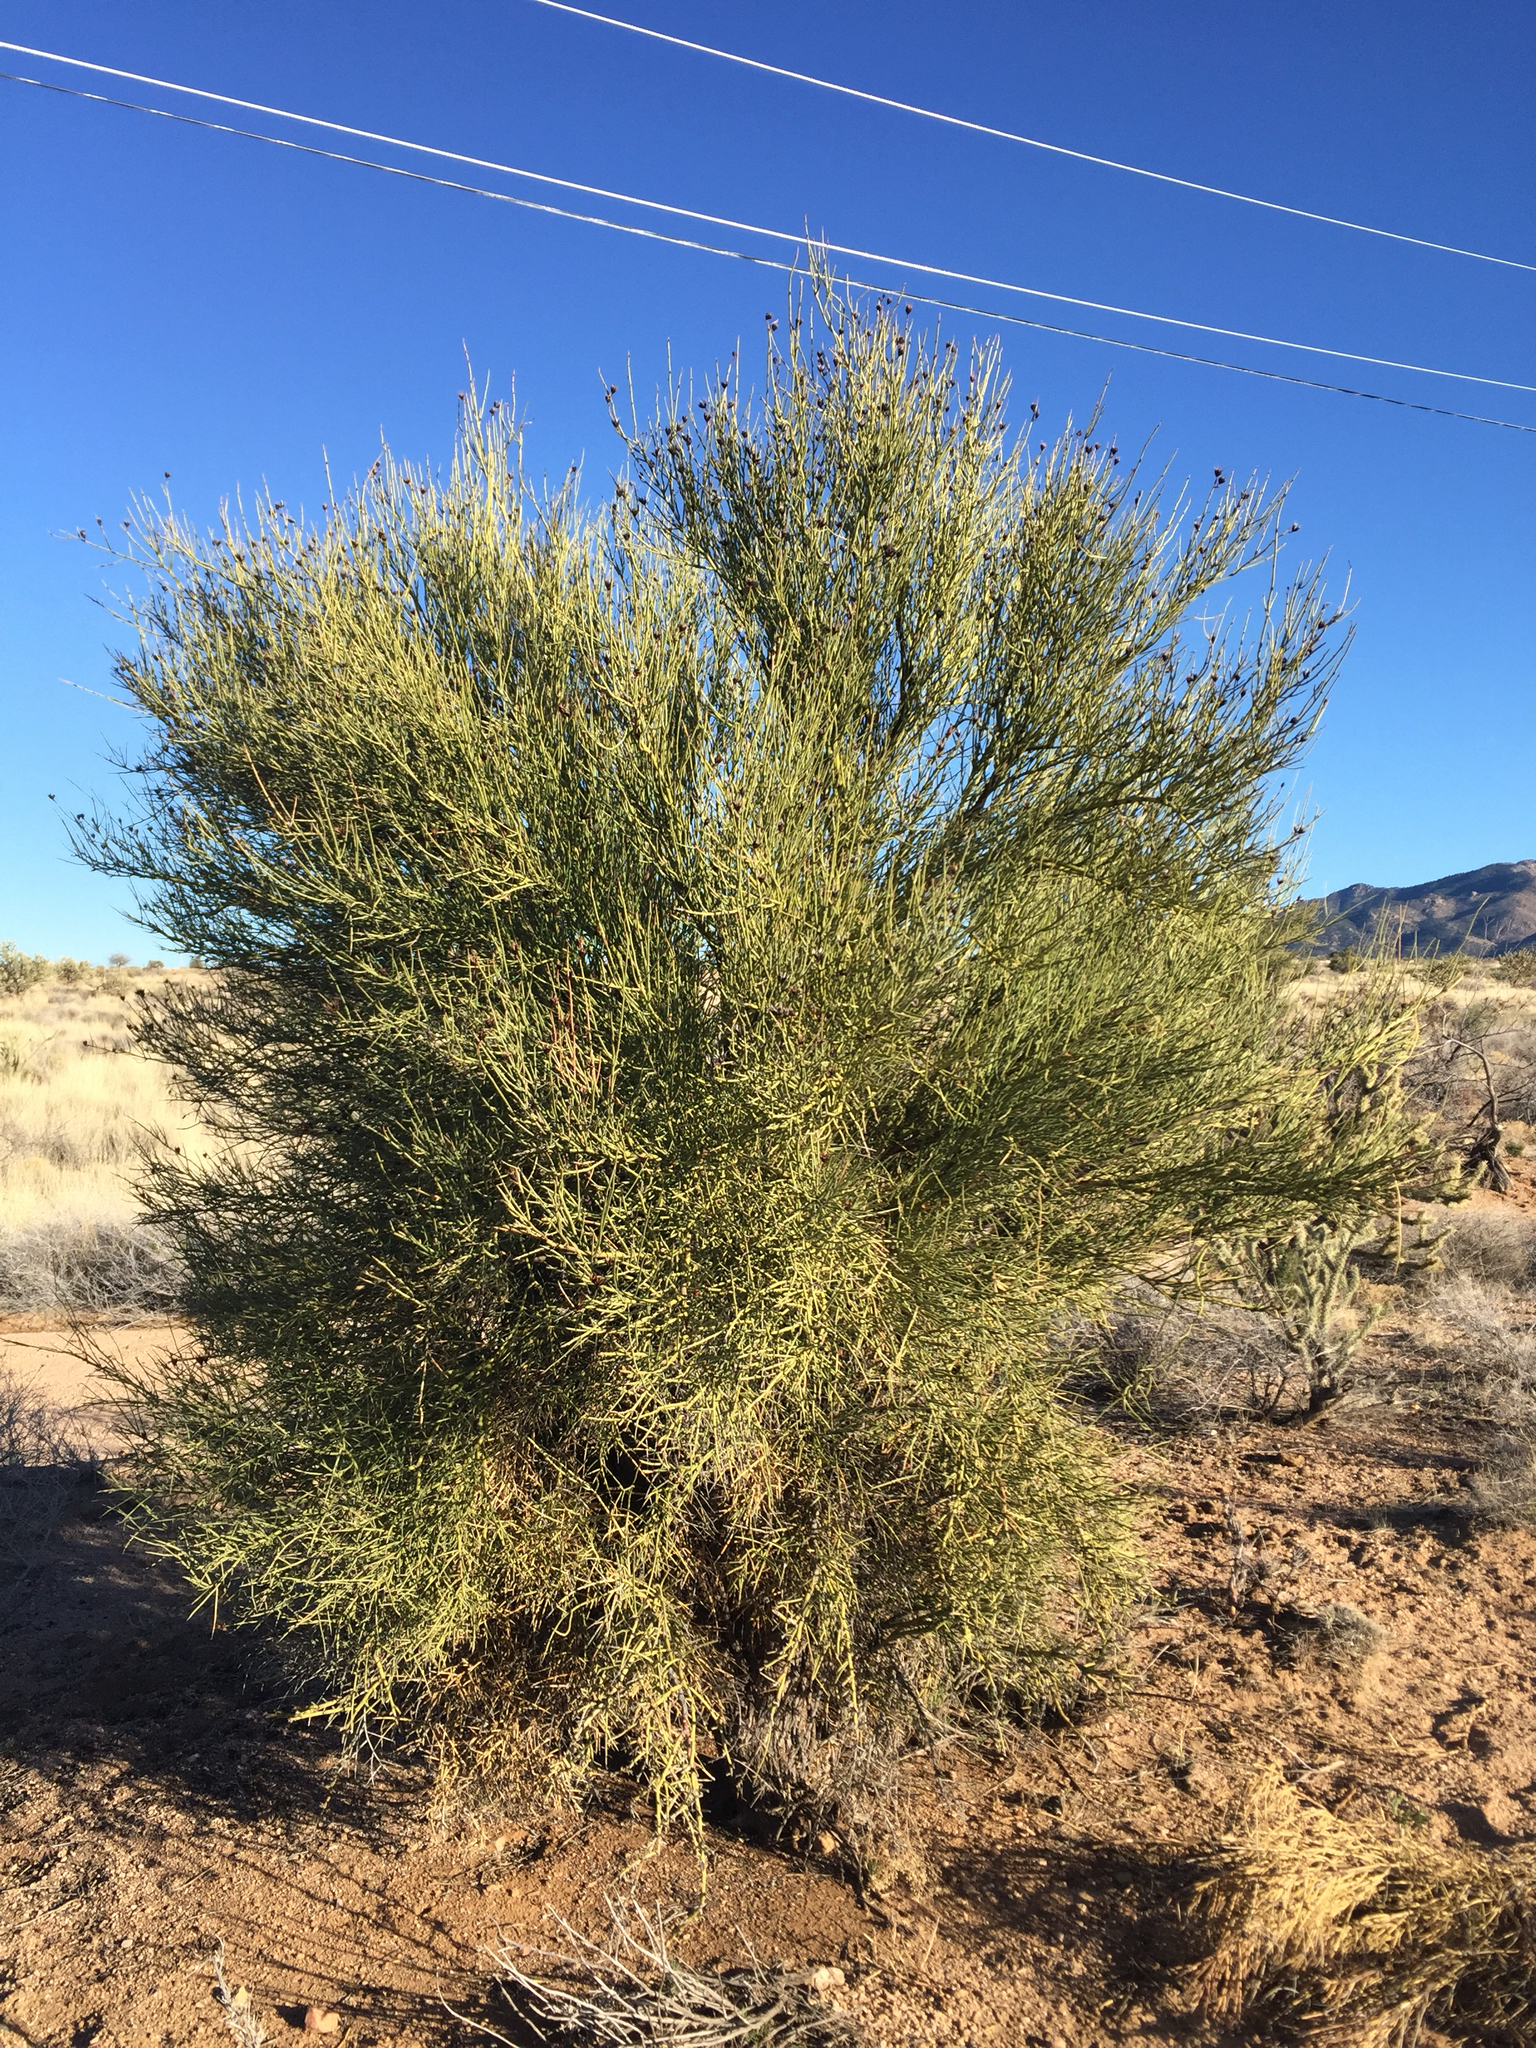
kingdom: Plantae
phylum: Tracheophyta
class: Magnoliopsida
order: Celastrales
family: Celastraceae
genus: Canotia
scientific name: Canotia holacantha
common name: Crucifixion thorns
